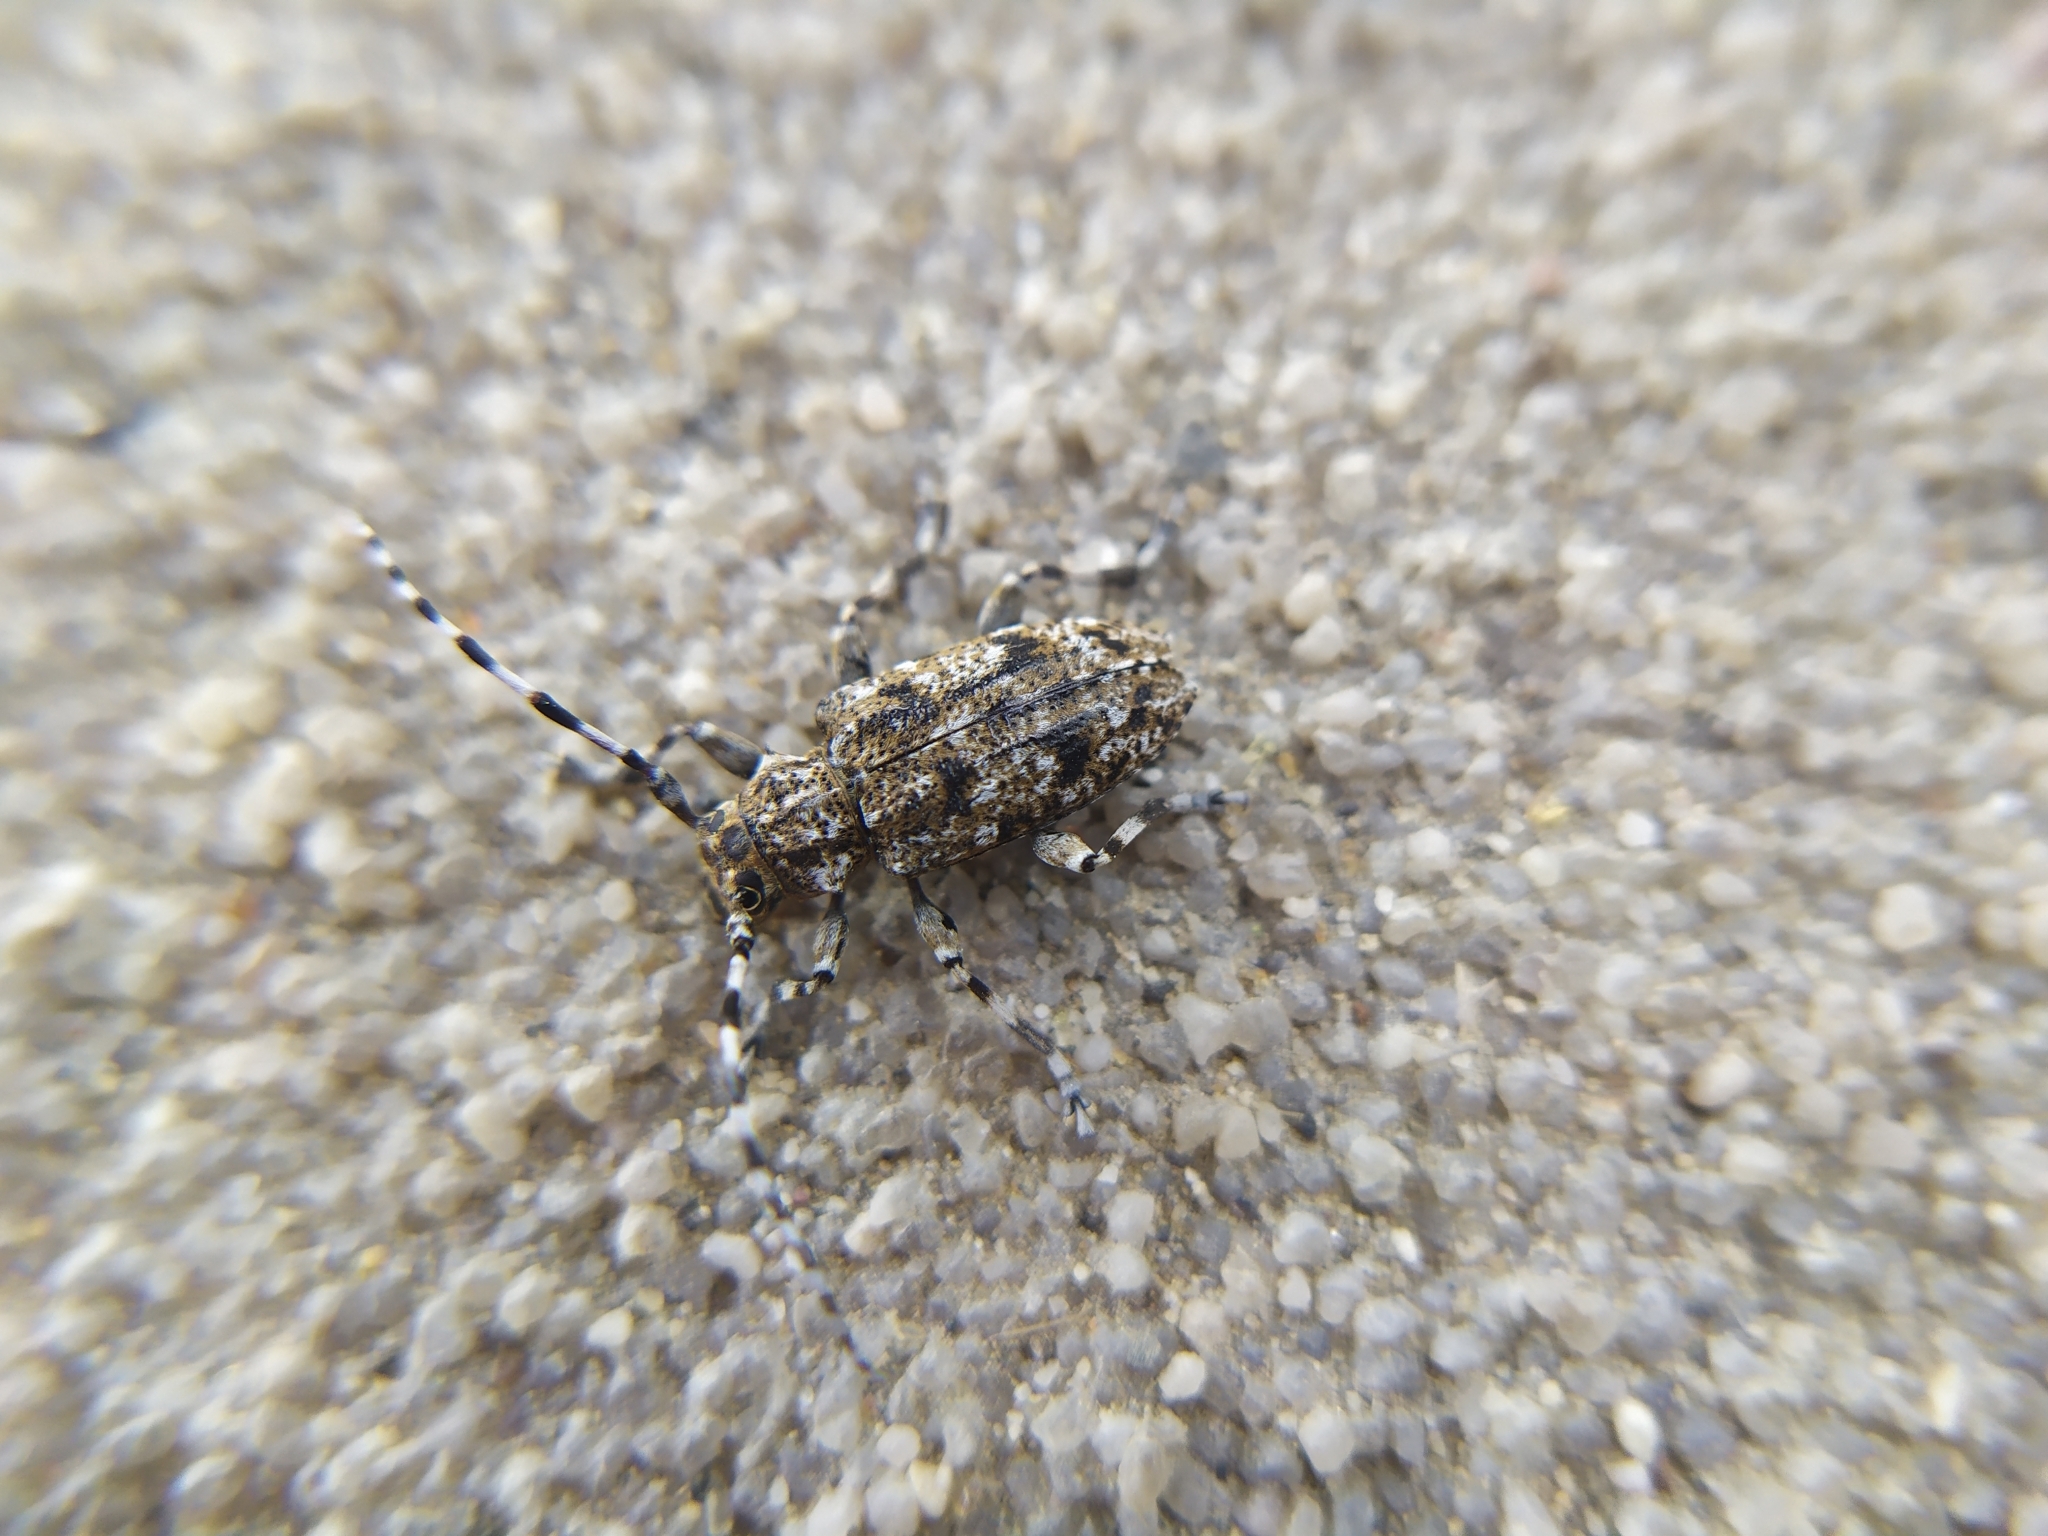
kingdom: Animalia
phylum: Arthropoda
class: Insecta
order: Coleoptera
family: Cerambycidae
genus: Aegomorphus
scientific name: Aegomorphus clavipes
